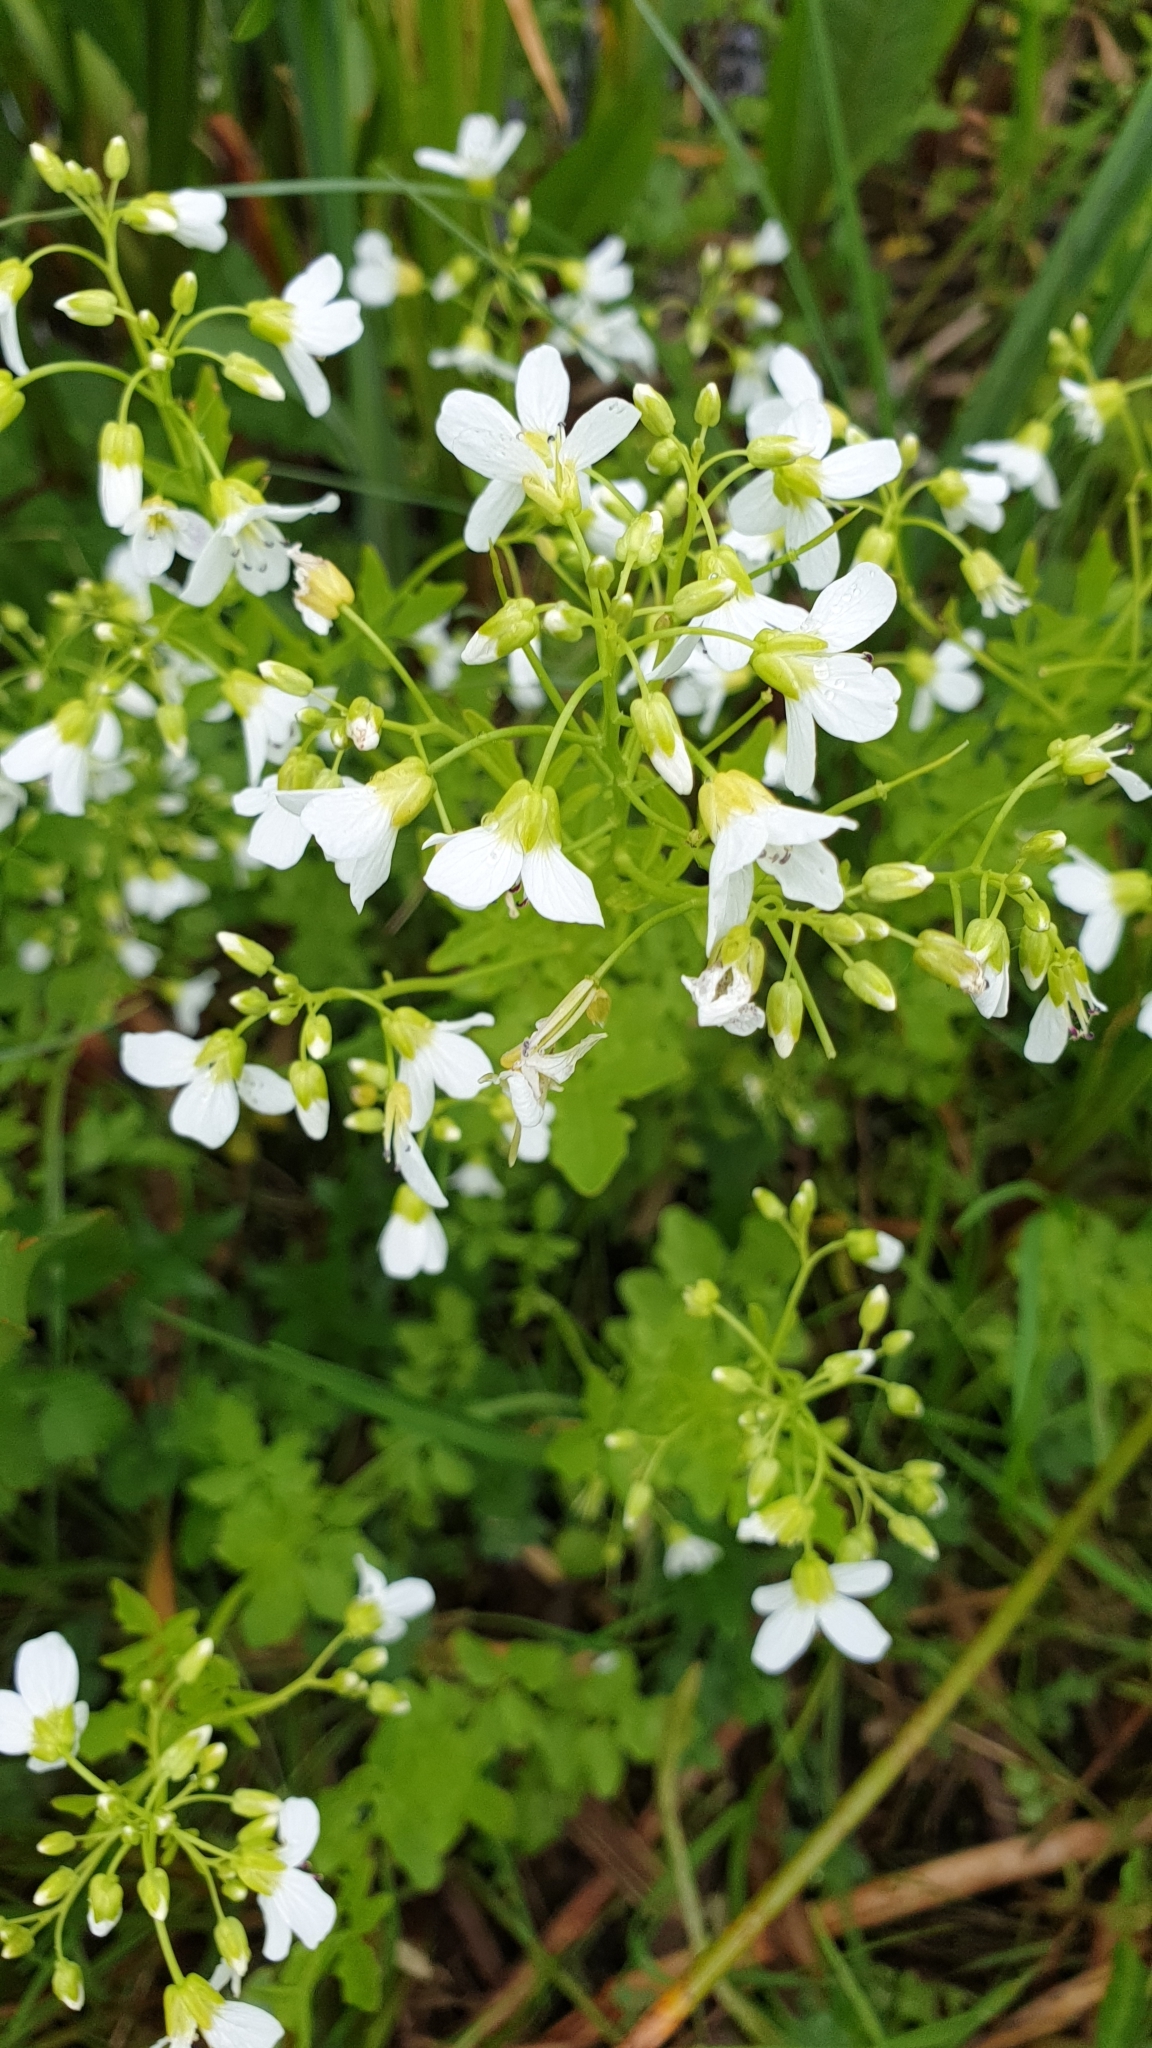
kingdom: Plantae
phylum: Tracheophyta
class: Magnoliopsida
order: Brassicales
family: Brassicaceae
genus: Cardamine
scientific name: Cardamine amara
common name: Large bitter-cress
